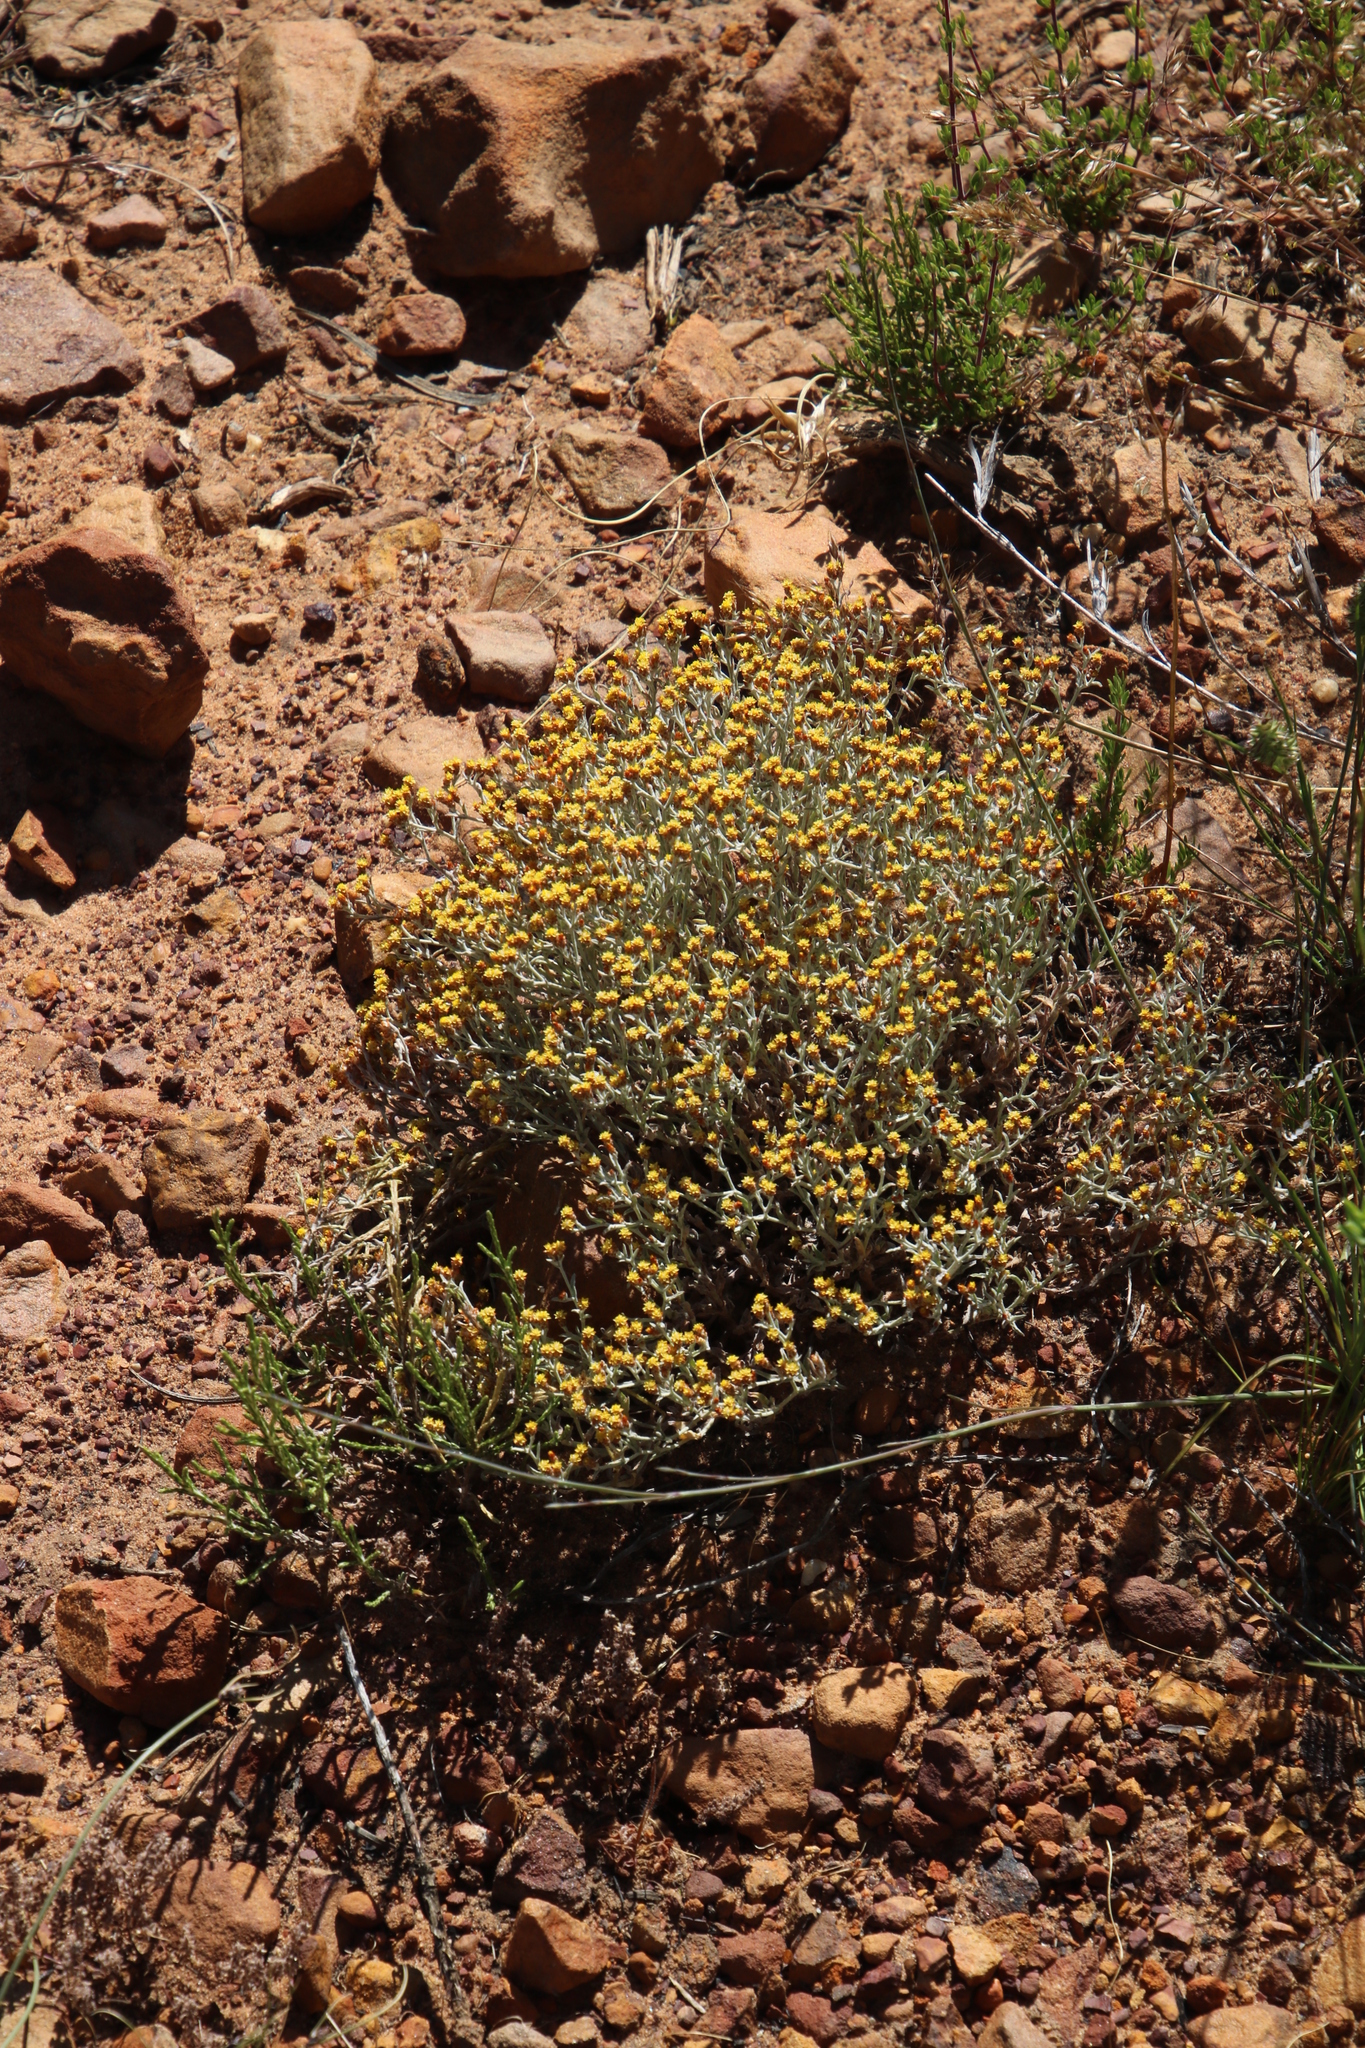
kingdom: Plantae
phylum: Tracheophyta
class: Magnoliopsida
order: Asterales
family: Asteraceae
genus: Helichrysum
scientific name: Helichrysum cylindriflorum
